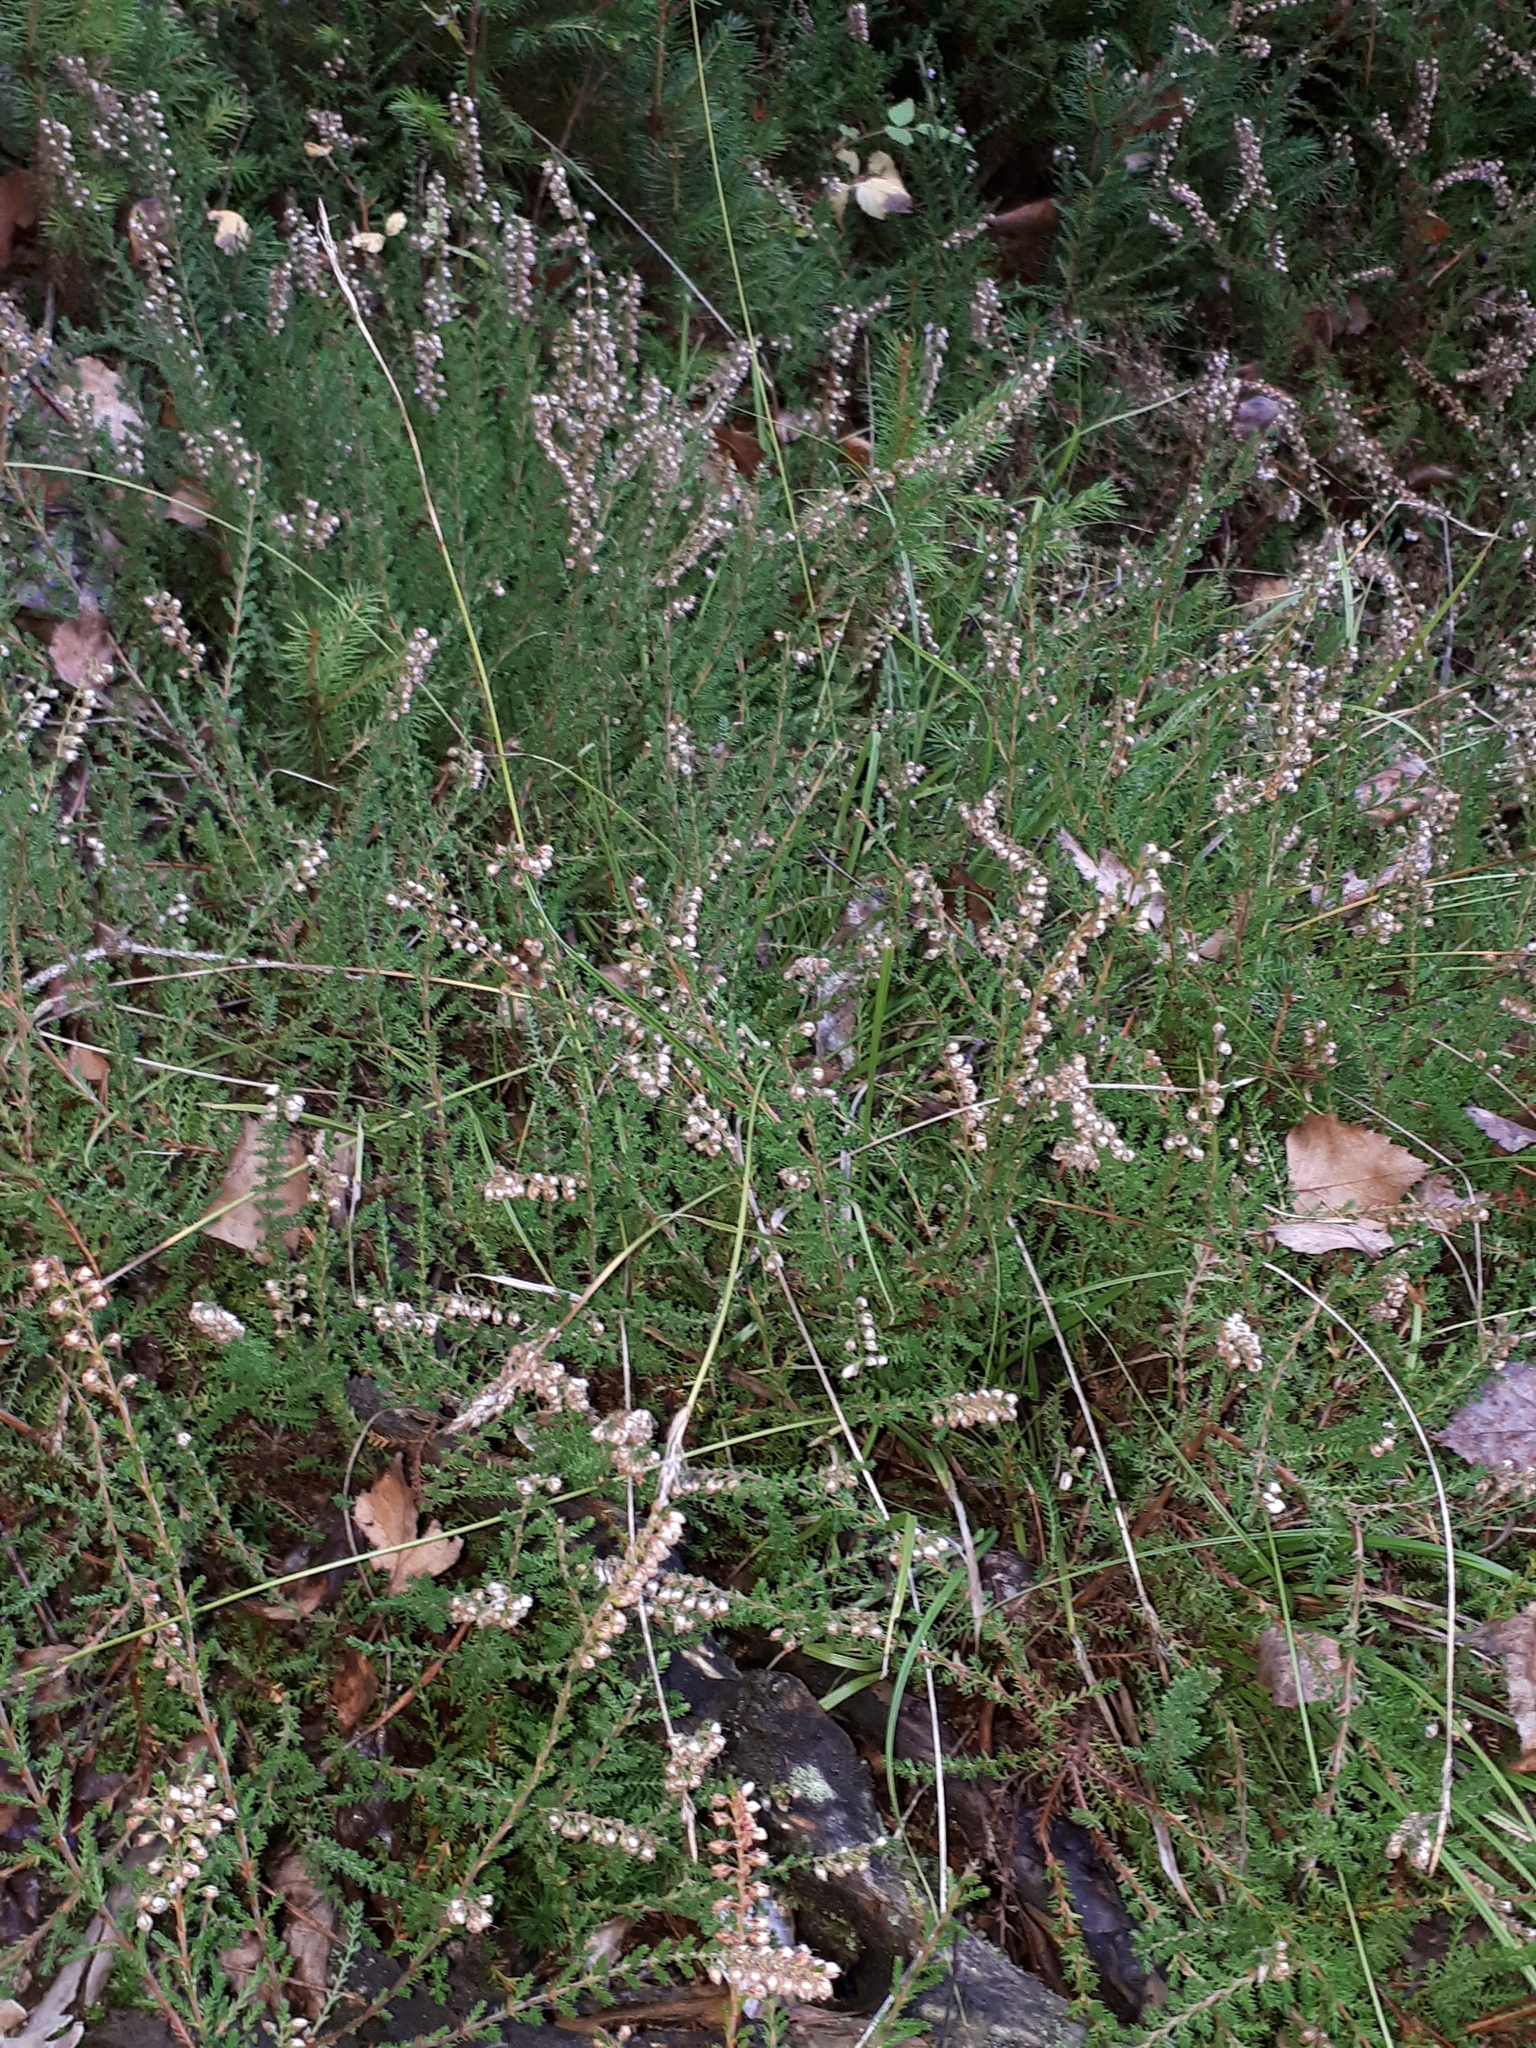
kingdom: Plantae
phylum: Tracheophyta
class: Magnoliopsida
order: Ericales
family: Ericaceae
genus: Calluna
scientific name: Calluna vulgaris
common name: Heather
